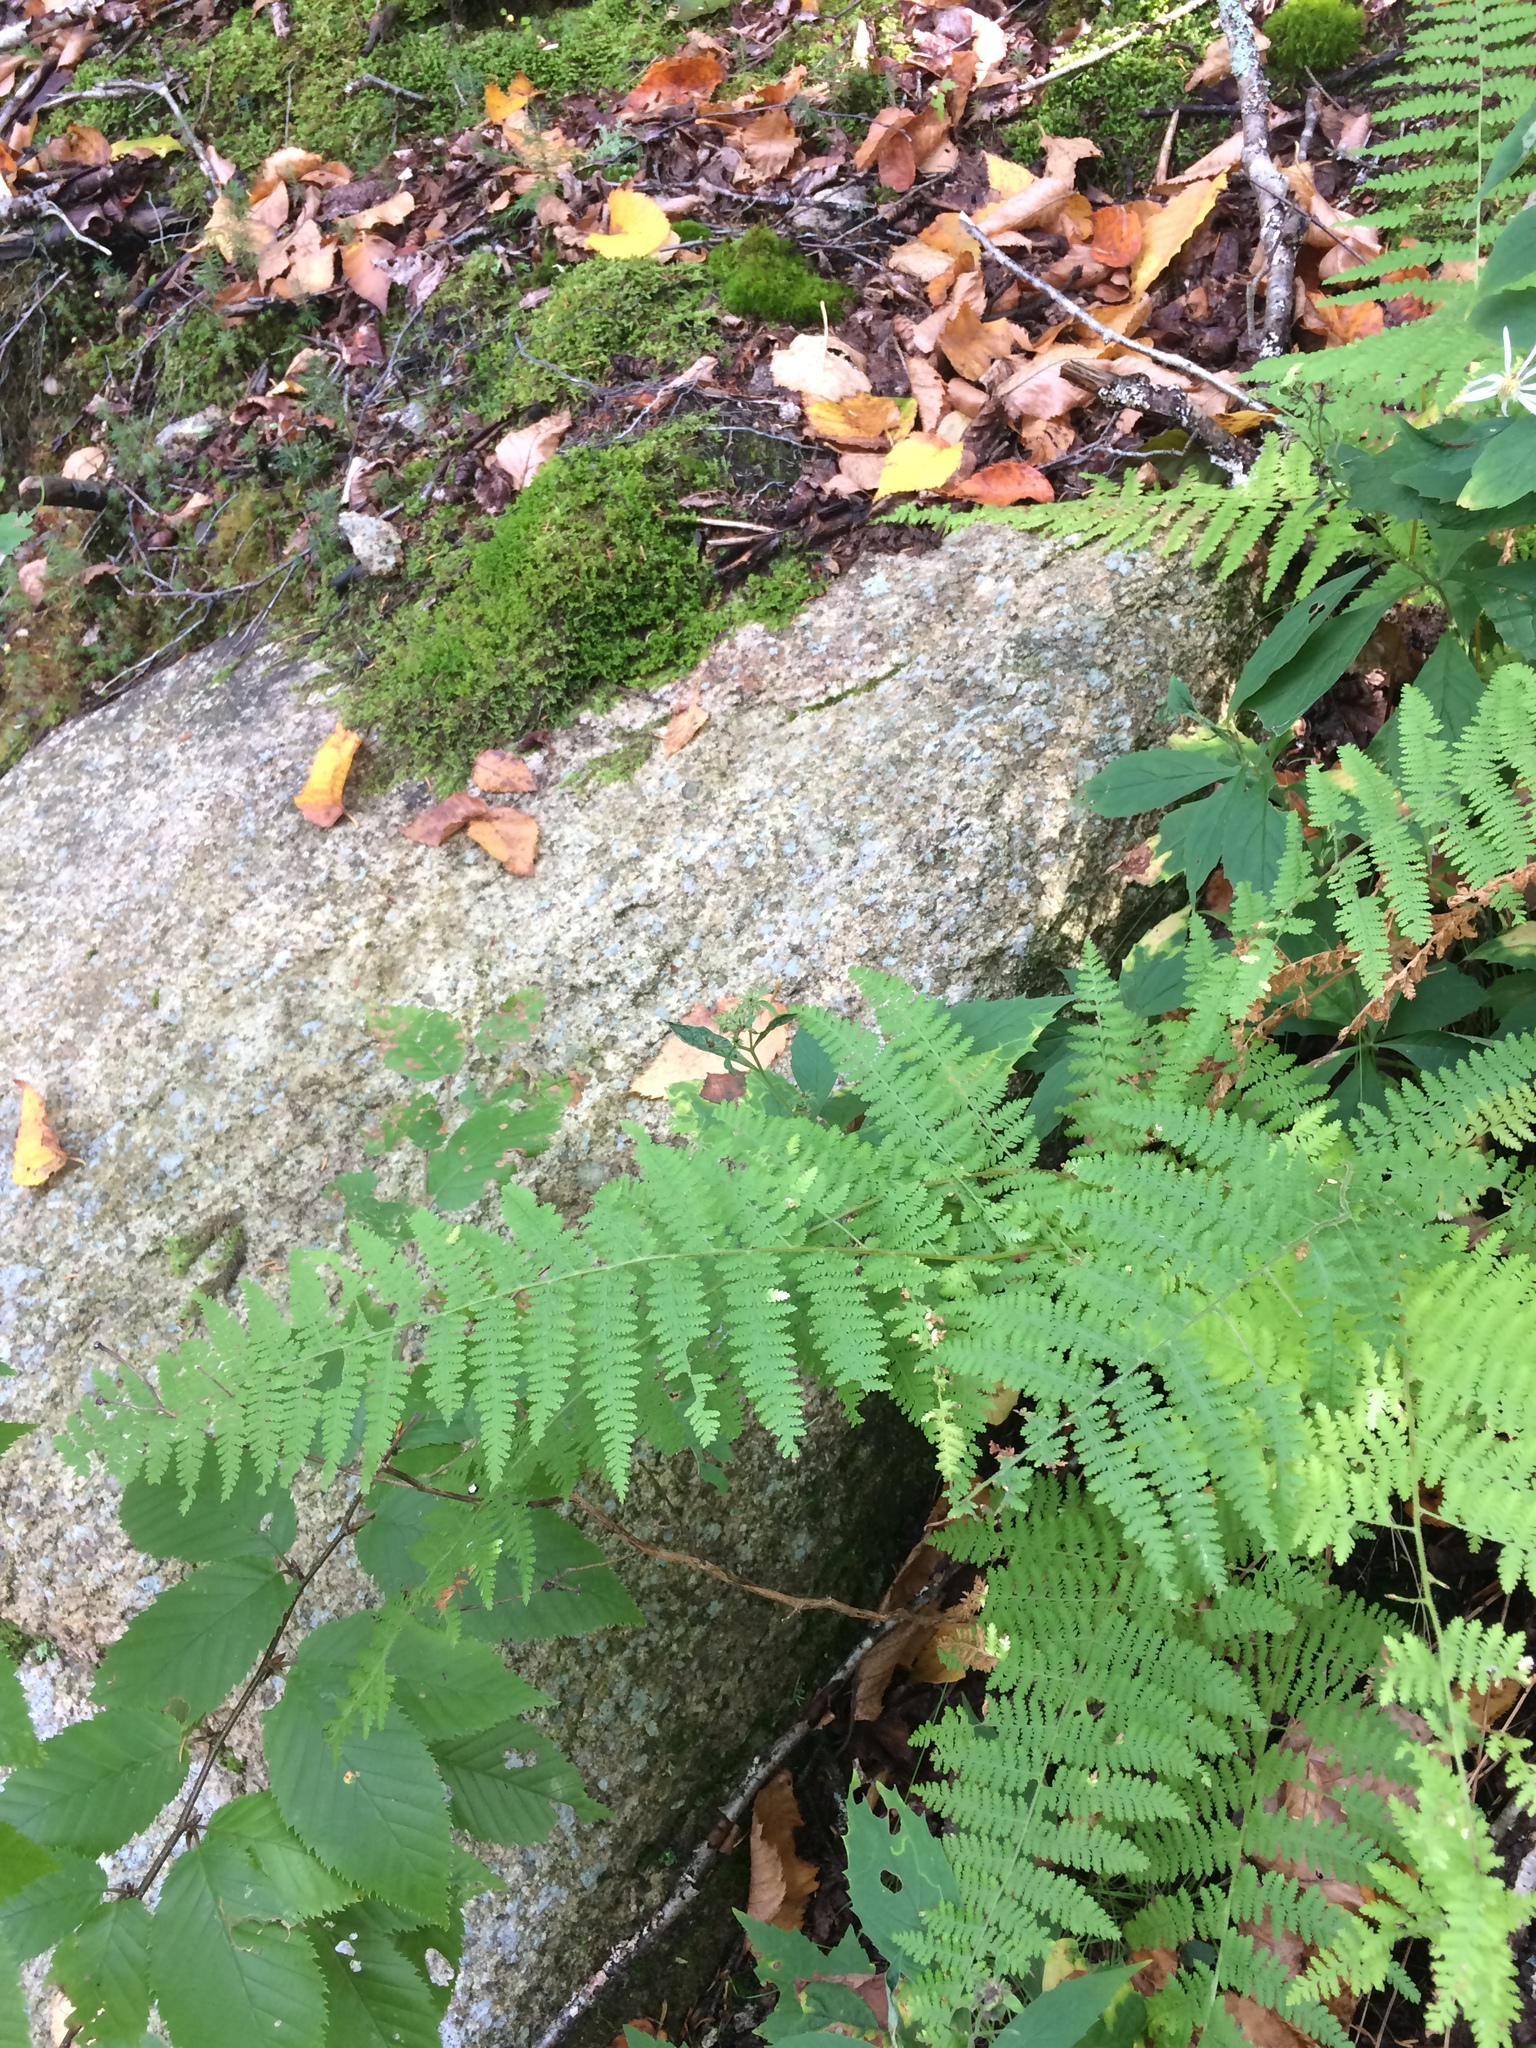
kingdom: Plantae
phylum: Tracheophyta
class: Polypodiopsida
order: Polypodiales
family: Dennstaedtiaceae
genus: Sitobolium
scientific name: Sitobolium punctilobum
